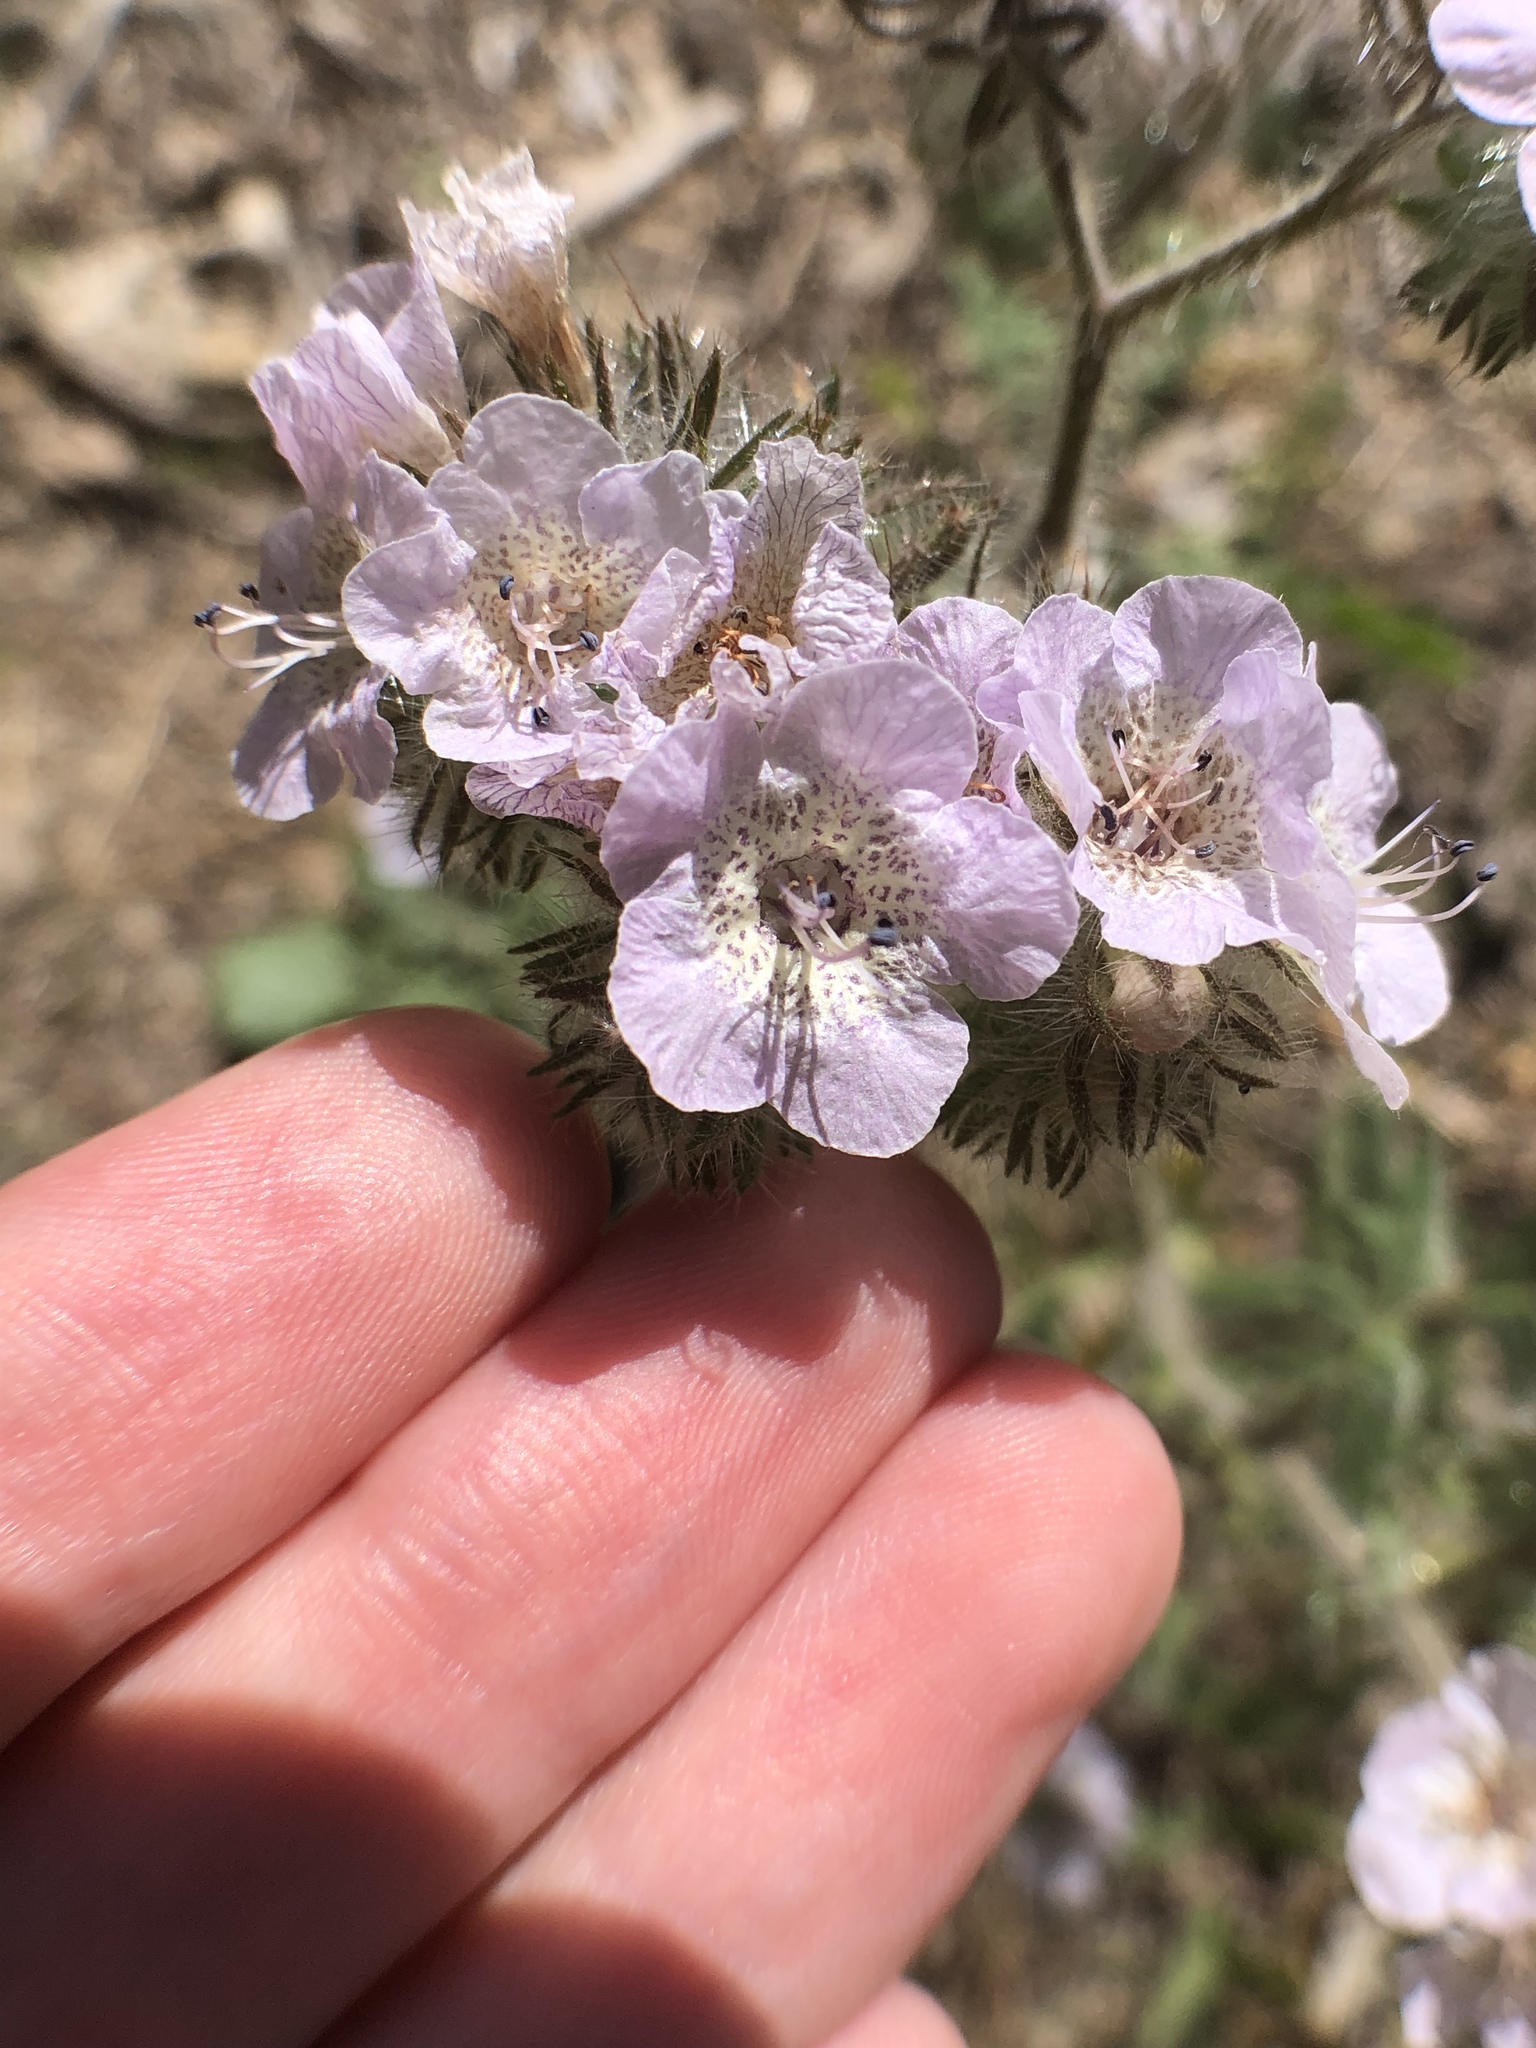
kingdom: Plantae
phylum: Tracheophyta
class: Magnoliopsida
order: Boraginales
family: Hydrophyllaceae
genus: Phacelia
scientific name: Phacelia cicutaria
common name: Caterpillar phacelia
